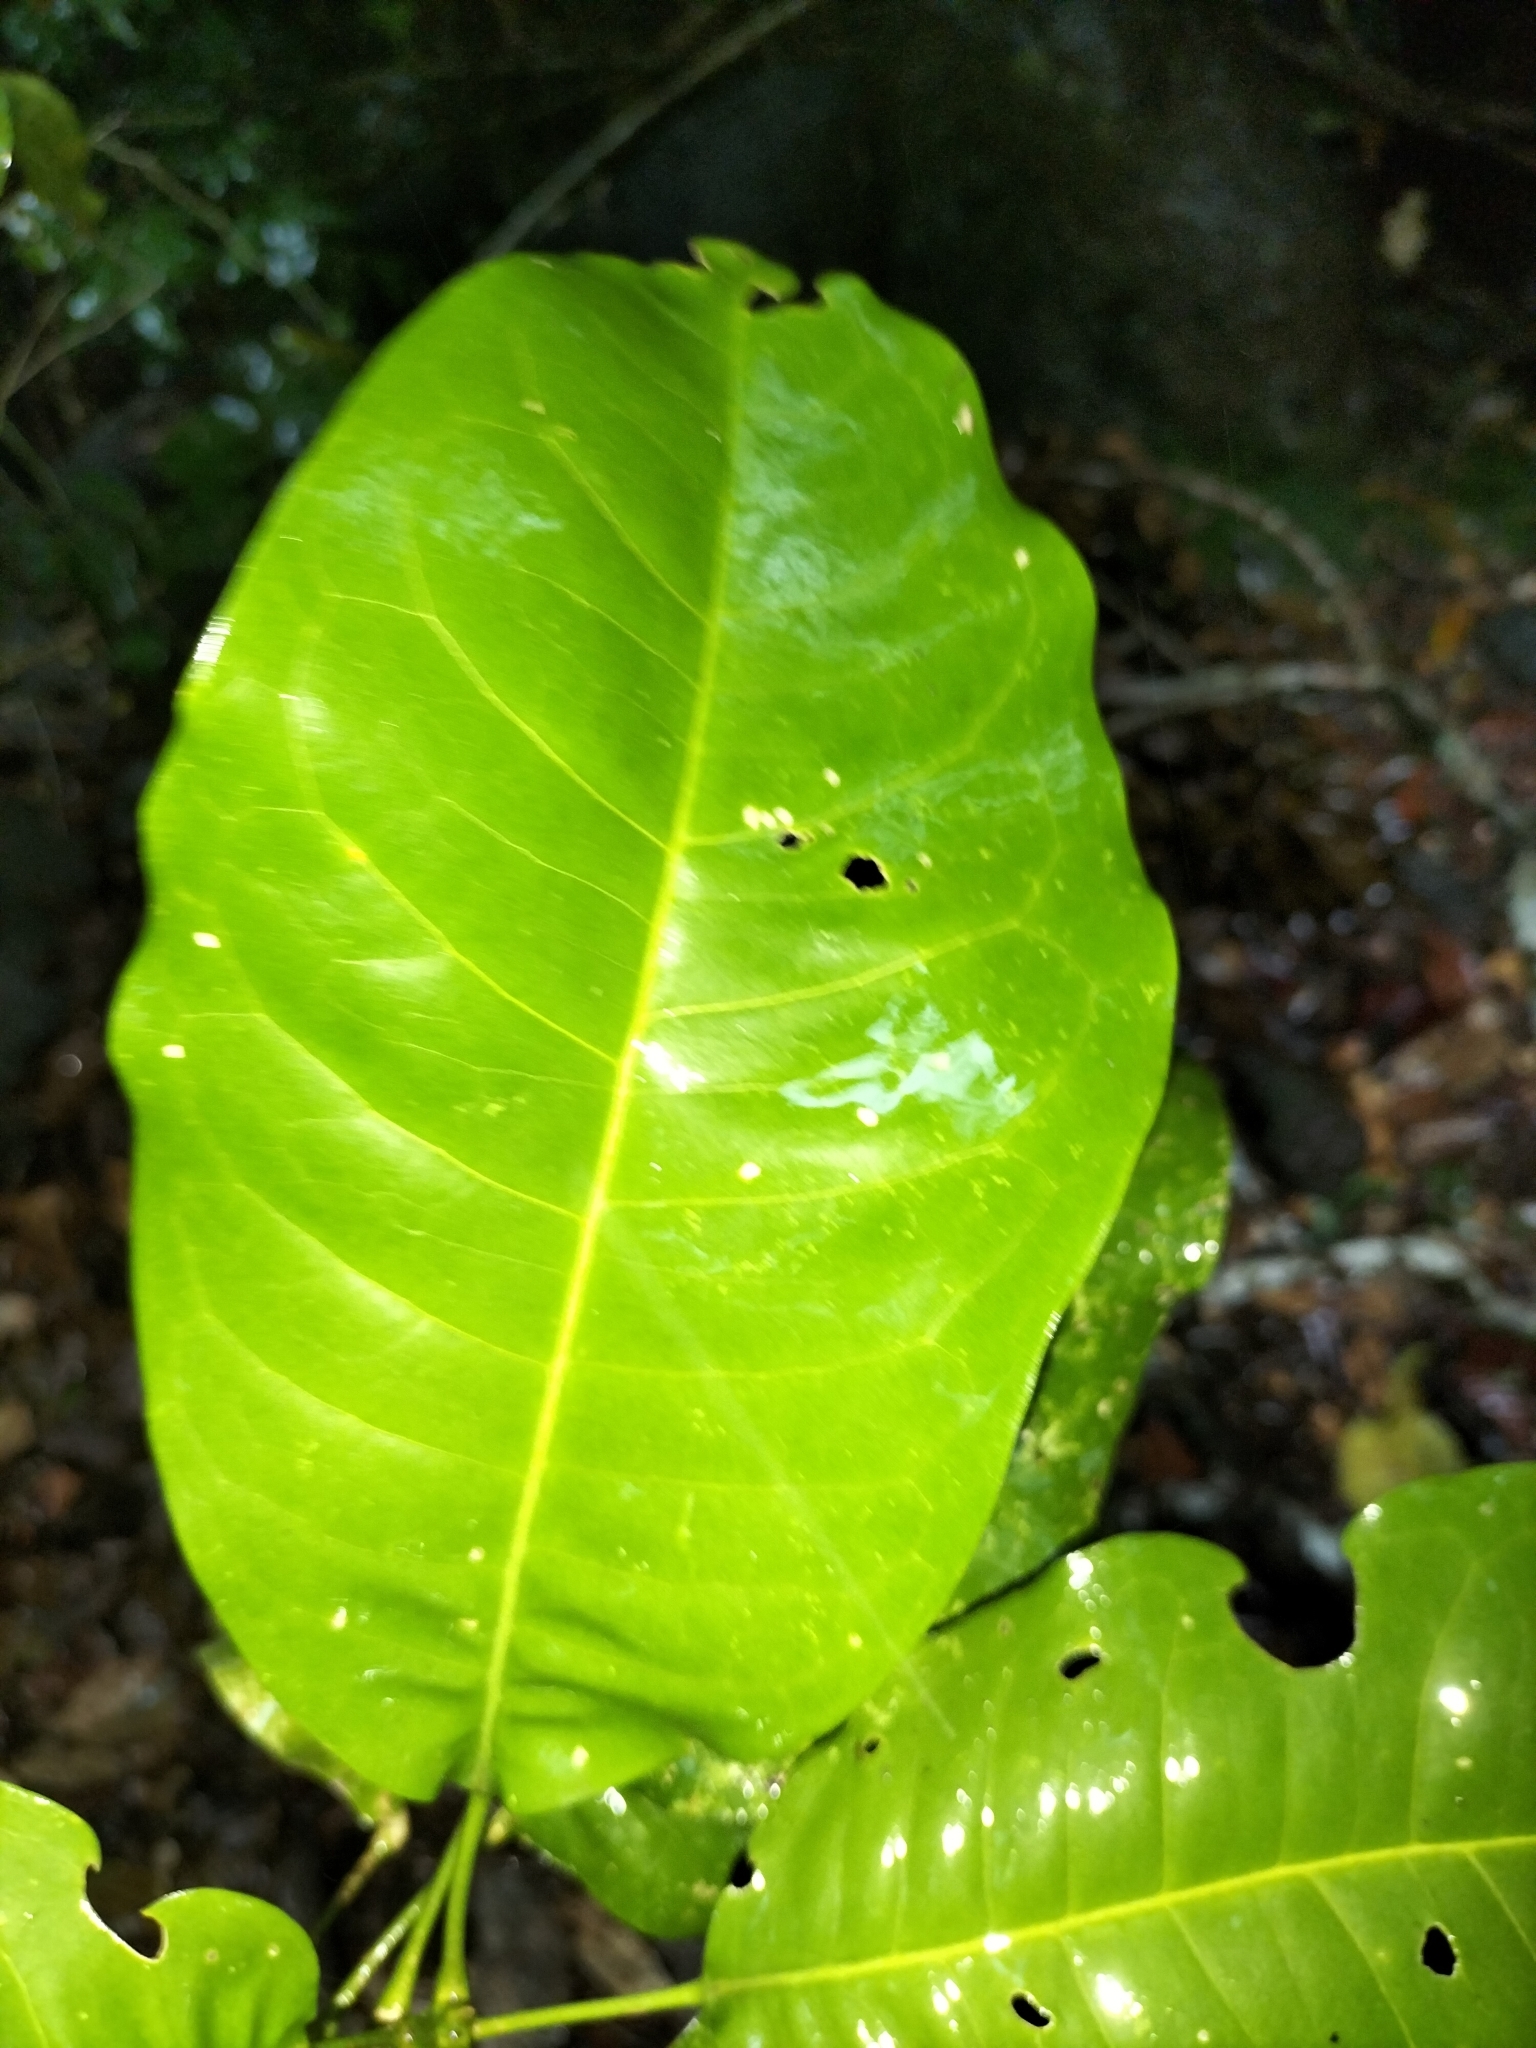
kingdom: Plantae
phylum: Tracheophyta
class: Magnoliopsida
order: Sapindales
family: Rutaceae
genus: Acronychia
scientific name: Acronychia acidula
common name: Lemon-aspen
